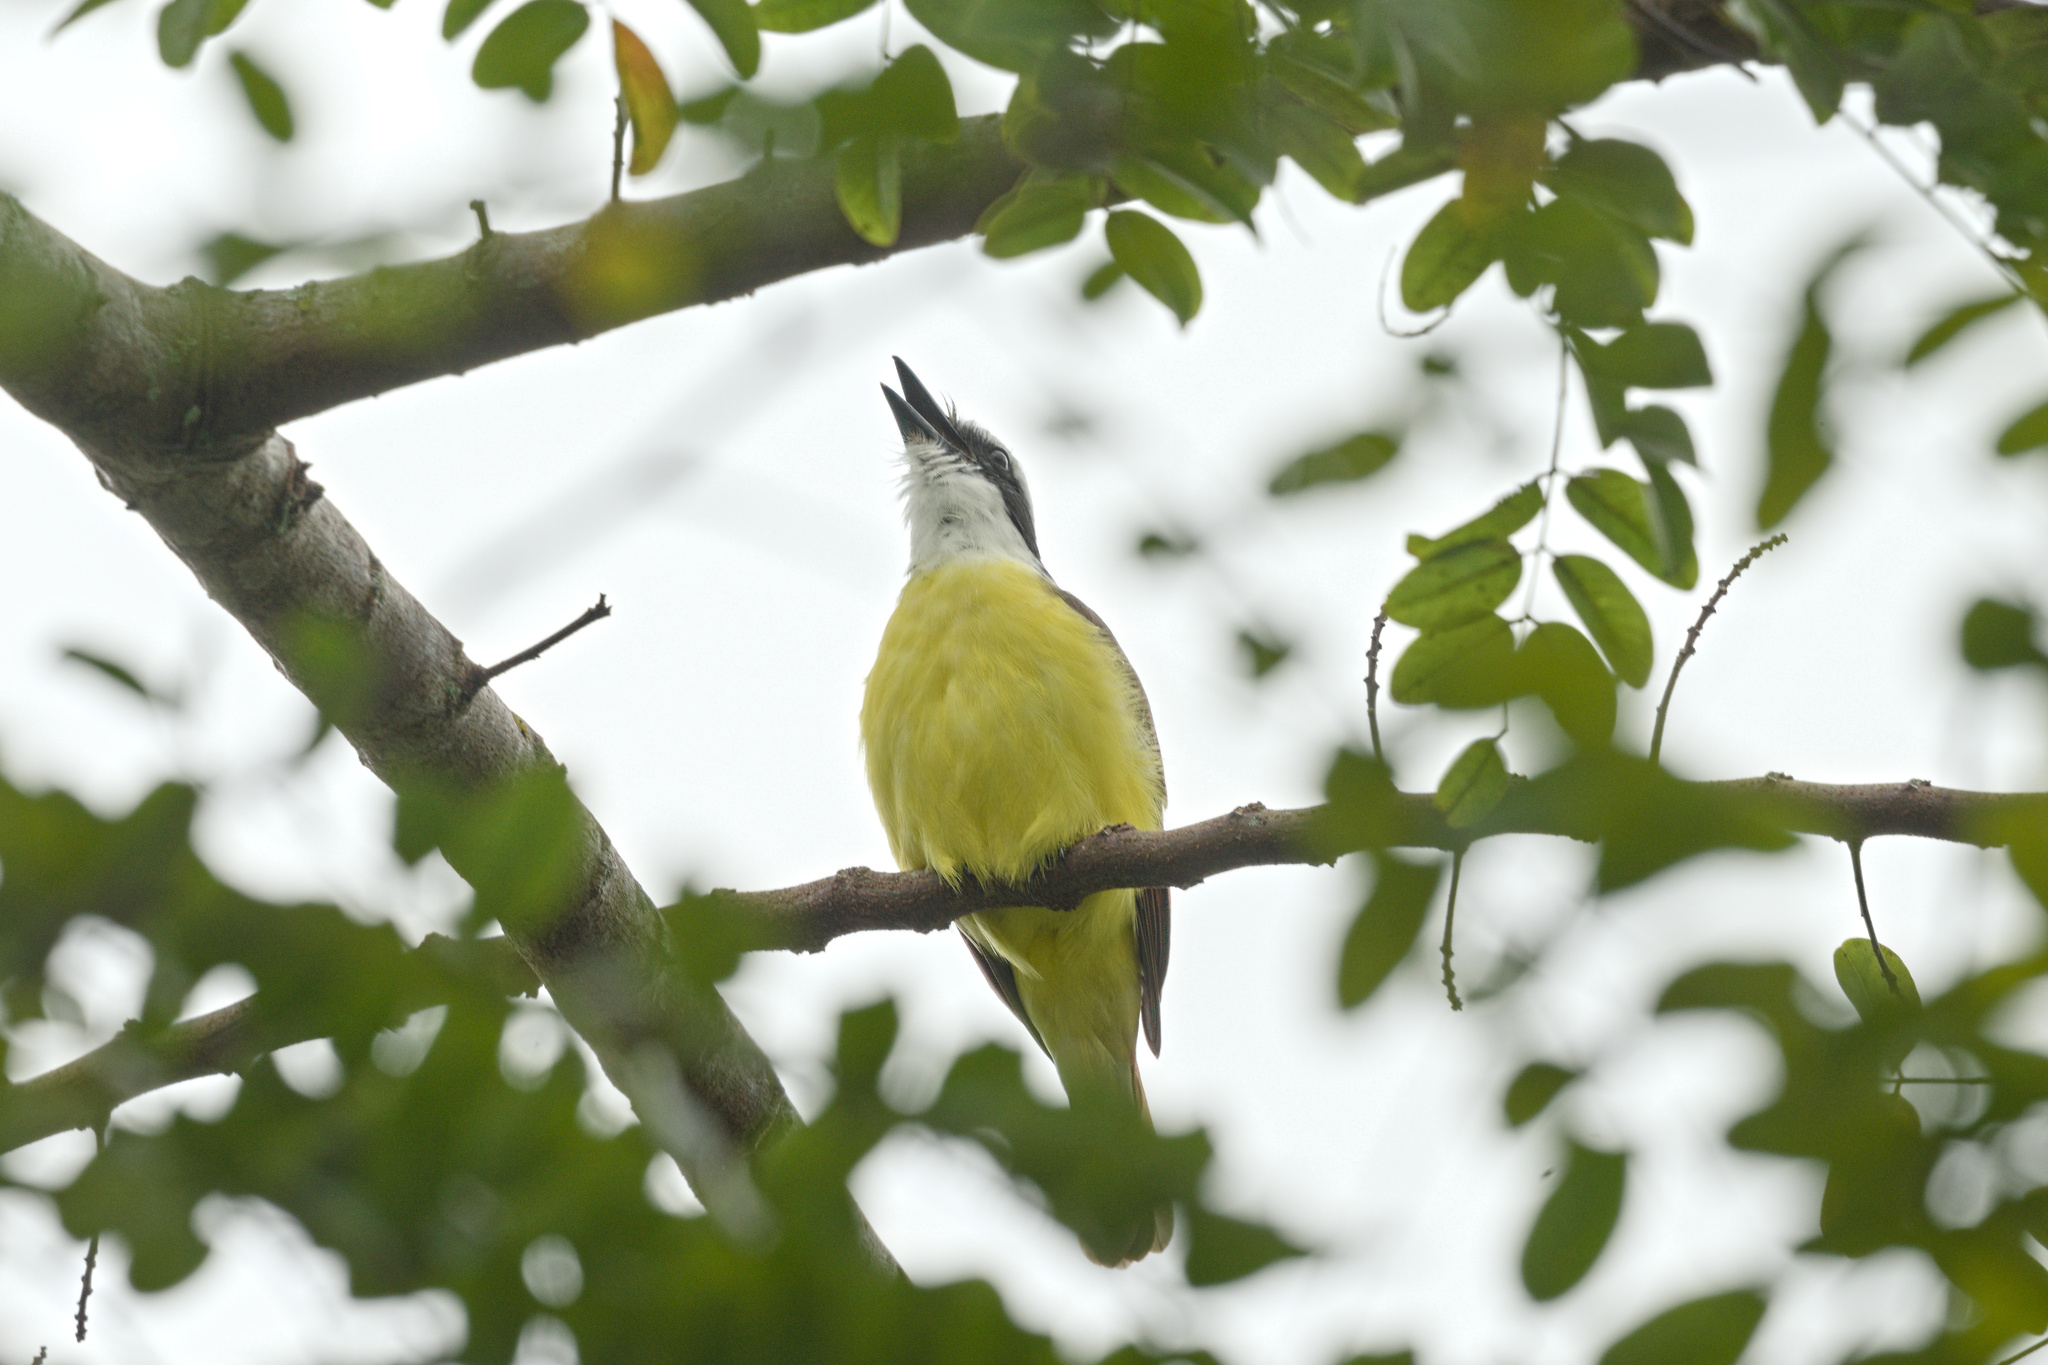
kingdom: Animalia
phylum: Chordata
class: Aves
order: Passeriformes
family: Tyrannidae
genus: Pitangus
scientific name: Pitangus sulphuratus
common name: Great kiskadee
